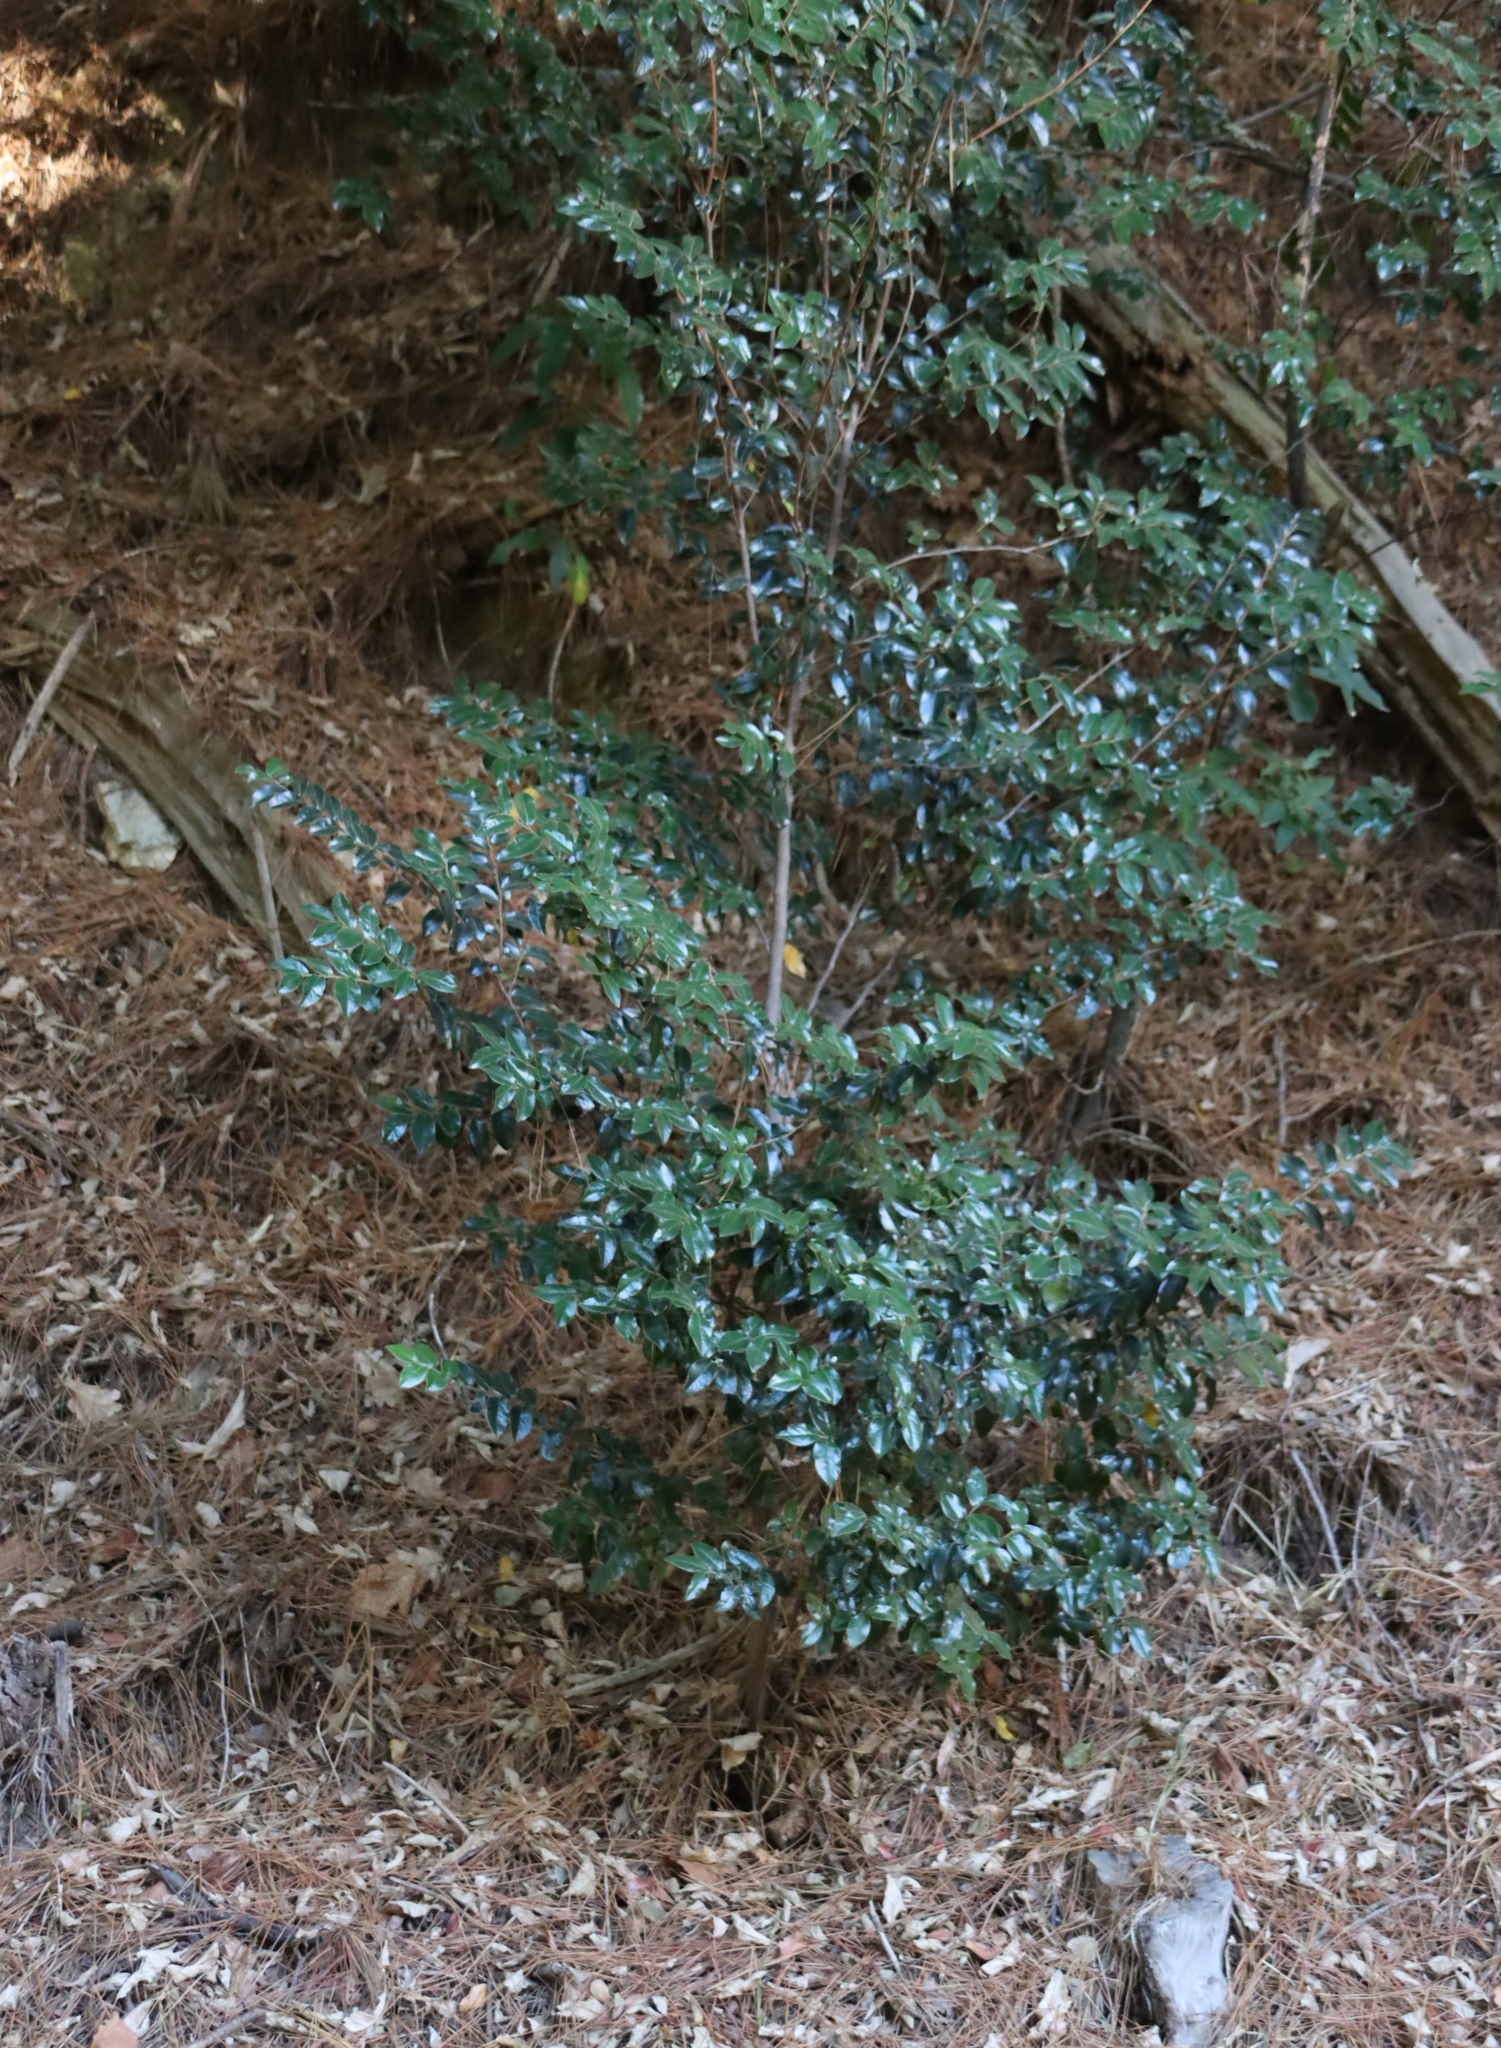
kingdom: Plantae
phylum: Tracheophyta
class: Magnoliopsida
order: Ericales
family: Ebenaceae
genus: Diospyros
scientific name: Diospyros whyteana
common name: Bladder-nut
